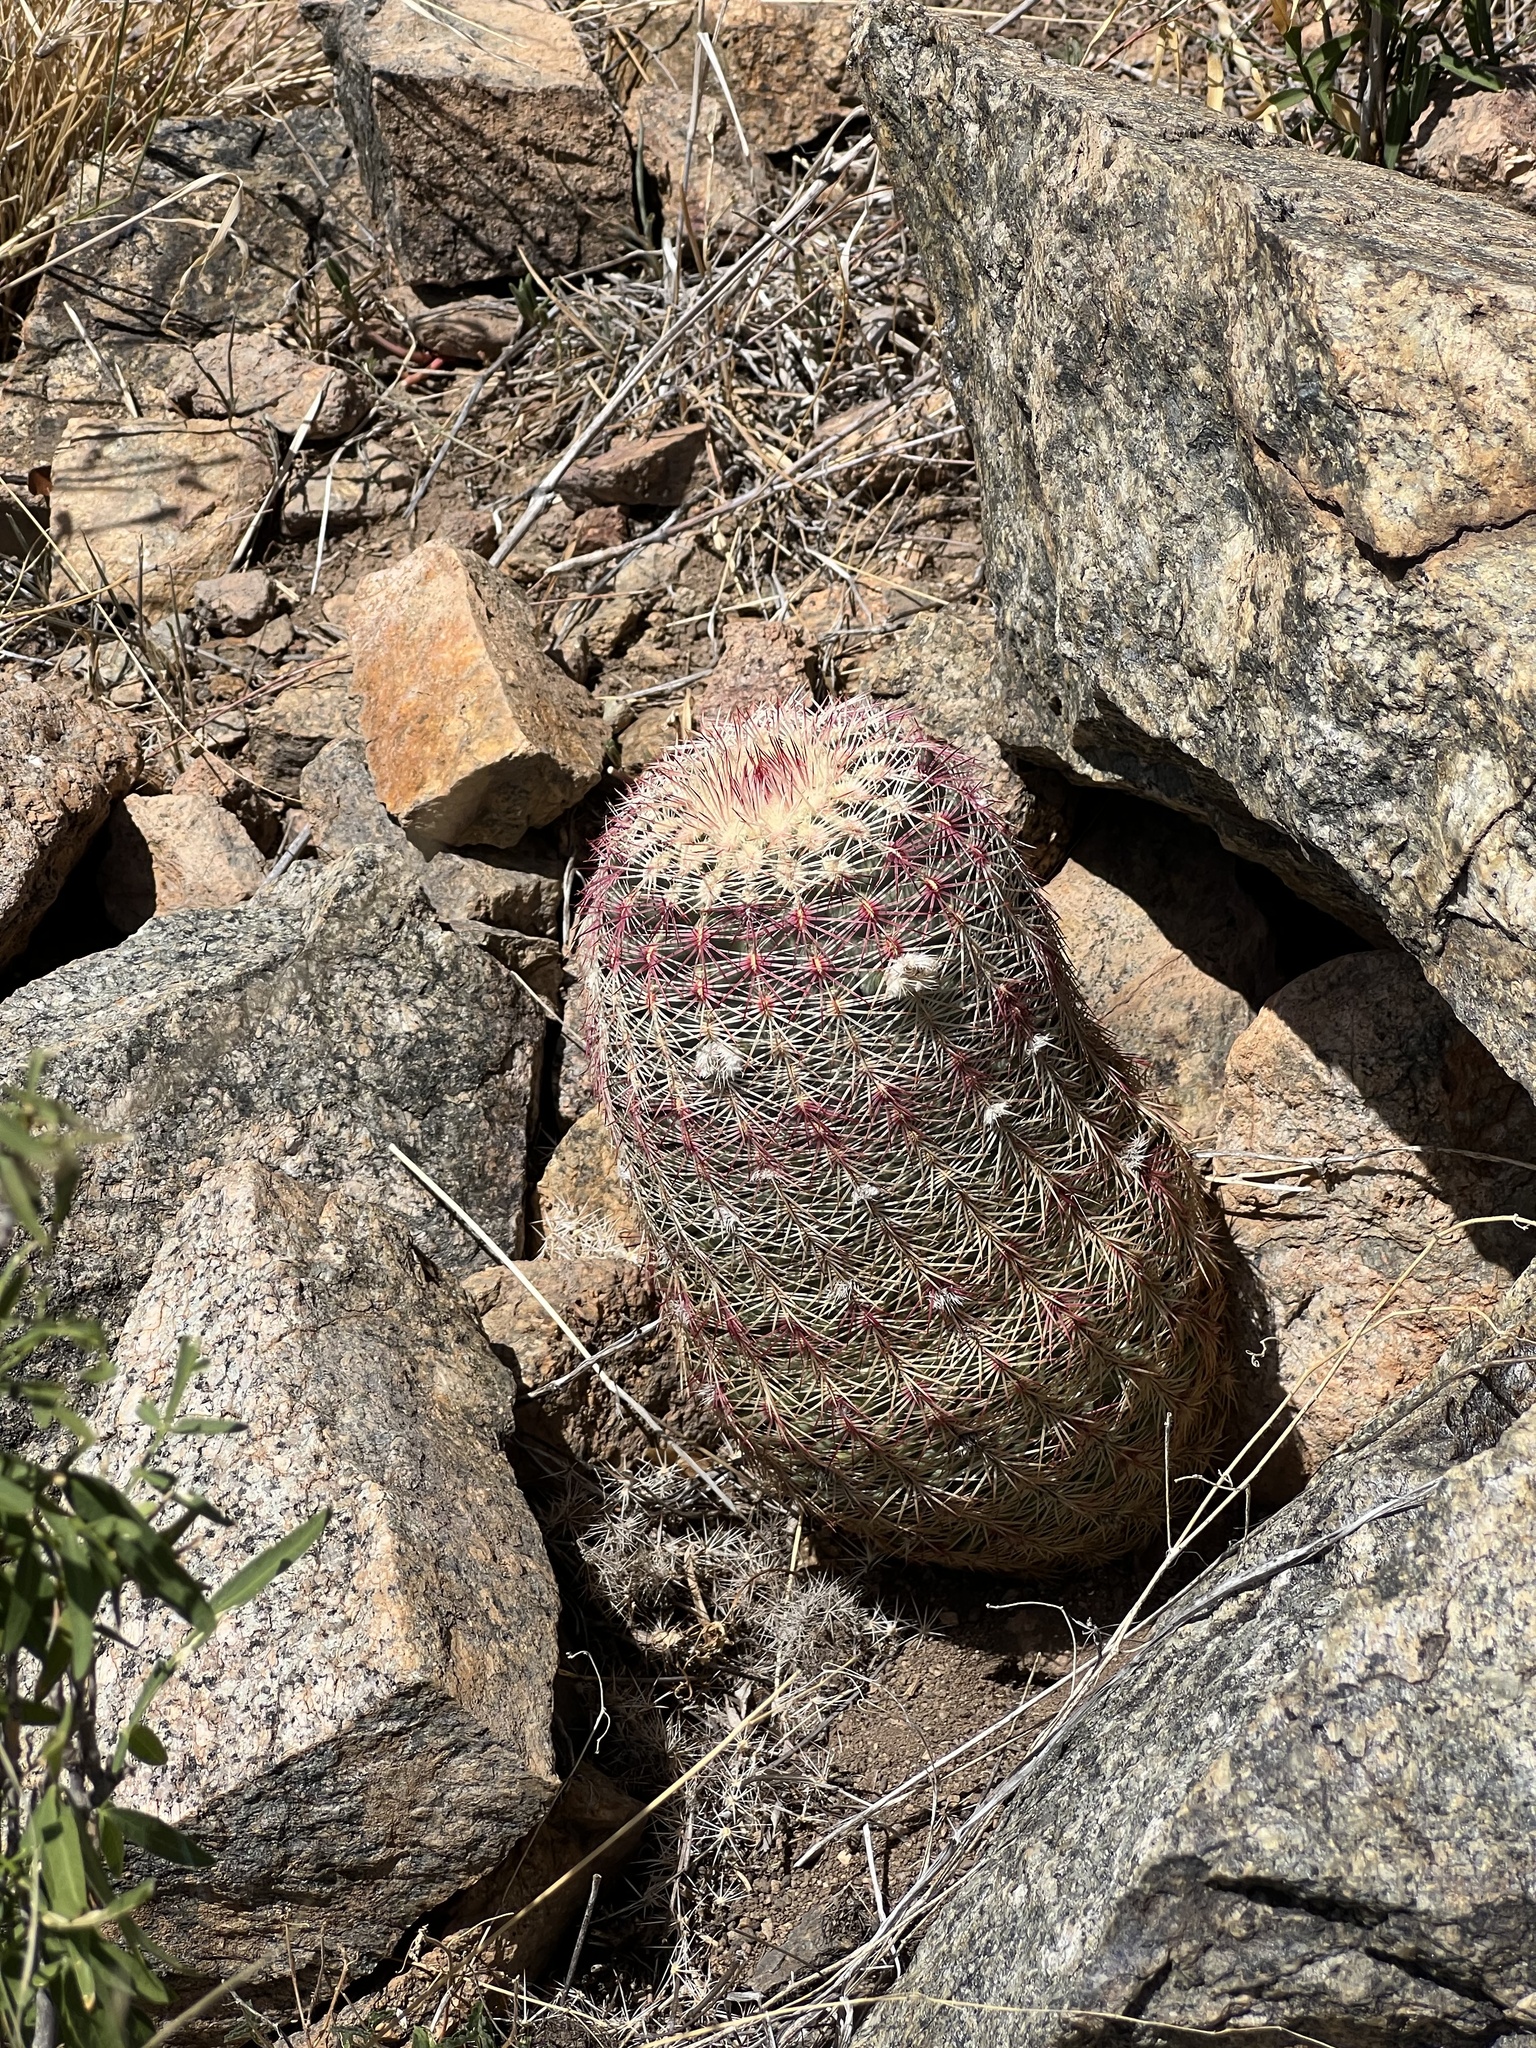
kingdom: Plantae
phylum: Tracheophyta
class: Magnoliopsida
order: Caryophyllales
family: Cactaceae
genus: Echinocereus
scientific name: Echinocereus rigidissimus
